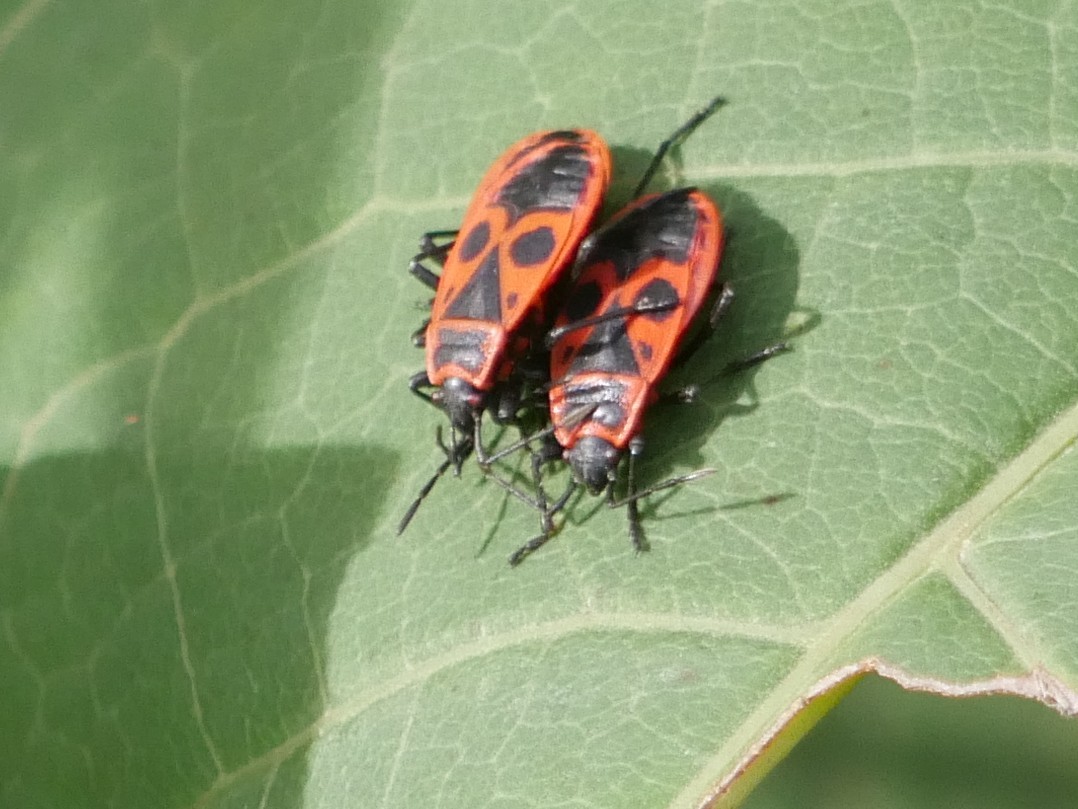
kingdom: Animalia
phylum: Arthropoda
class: Insecta
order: Hemiptera
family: Pyrrhocoridae
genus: Pyrrhocoris
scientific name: Pyrrhocoris apterus
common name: Firebug
